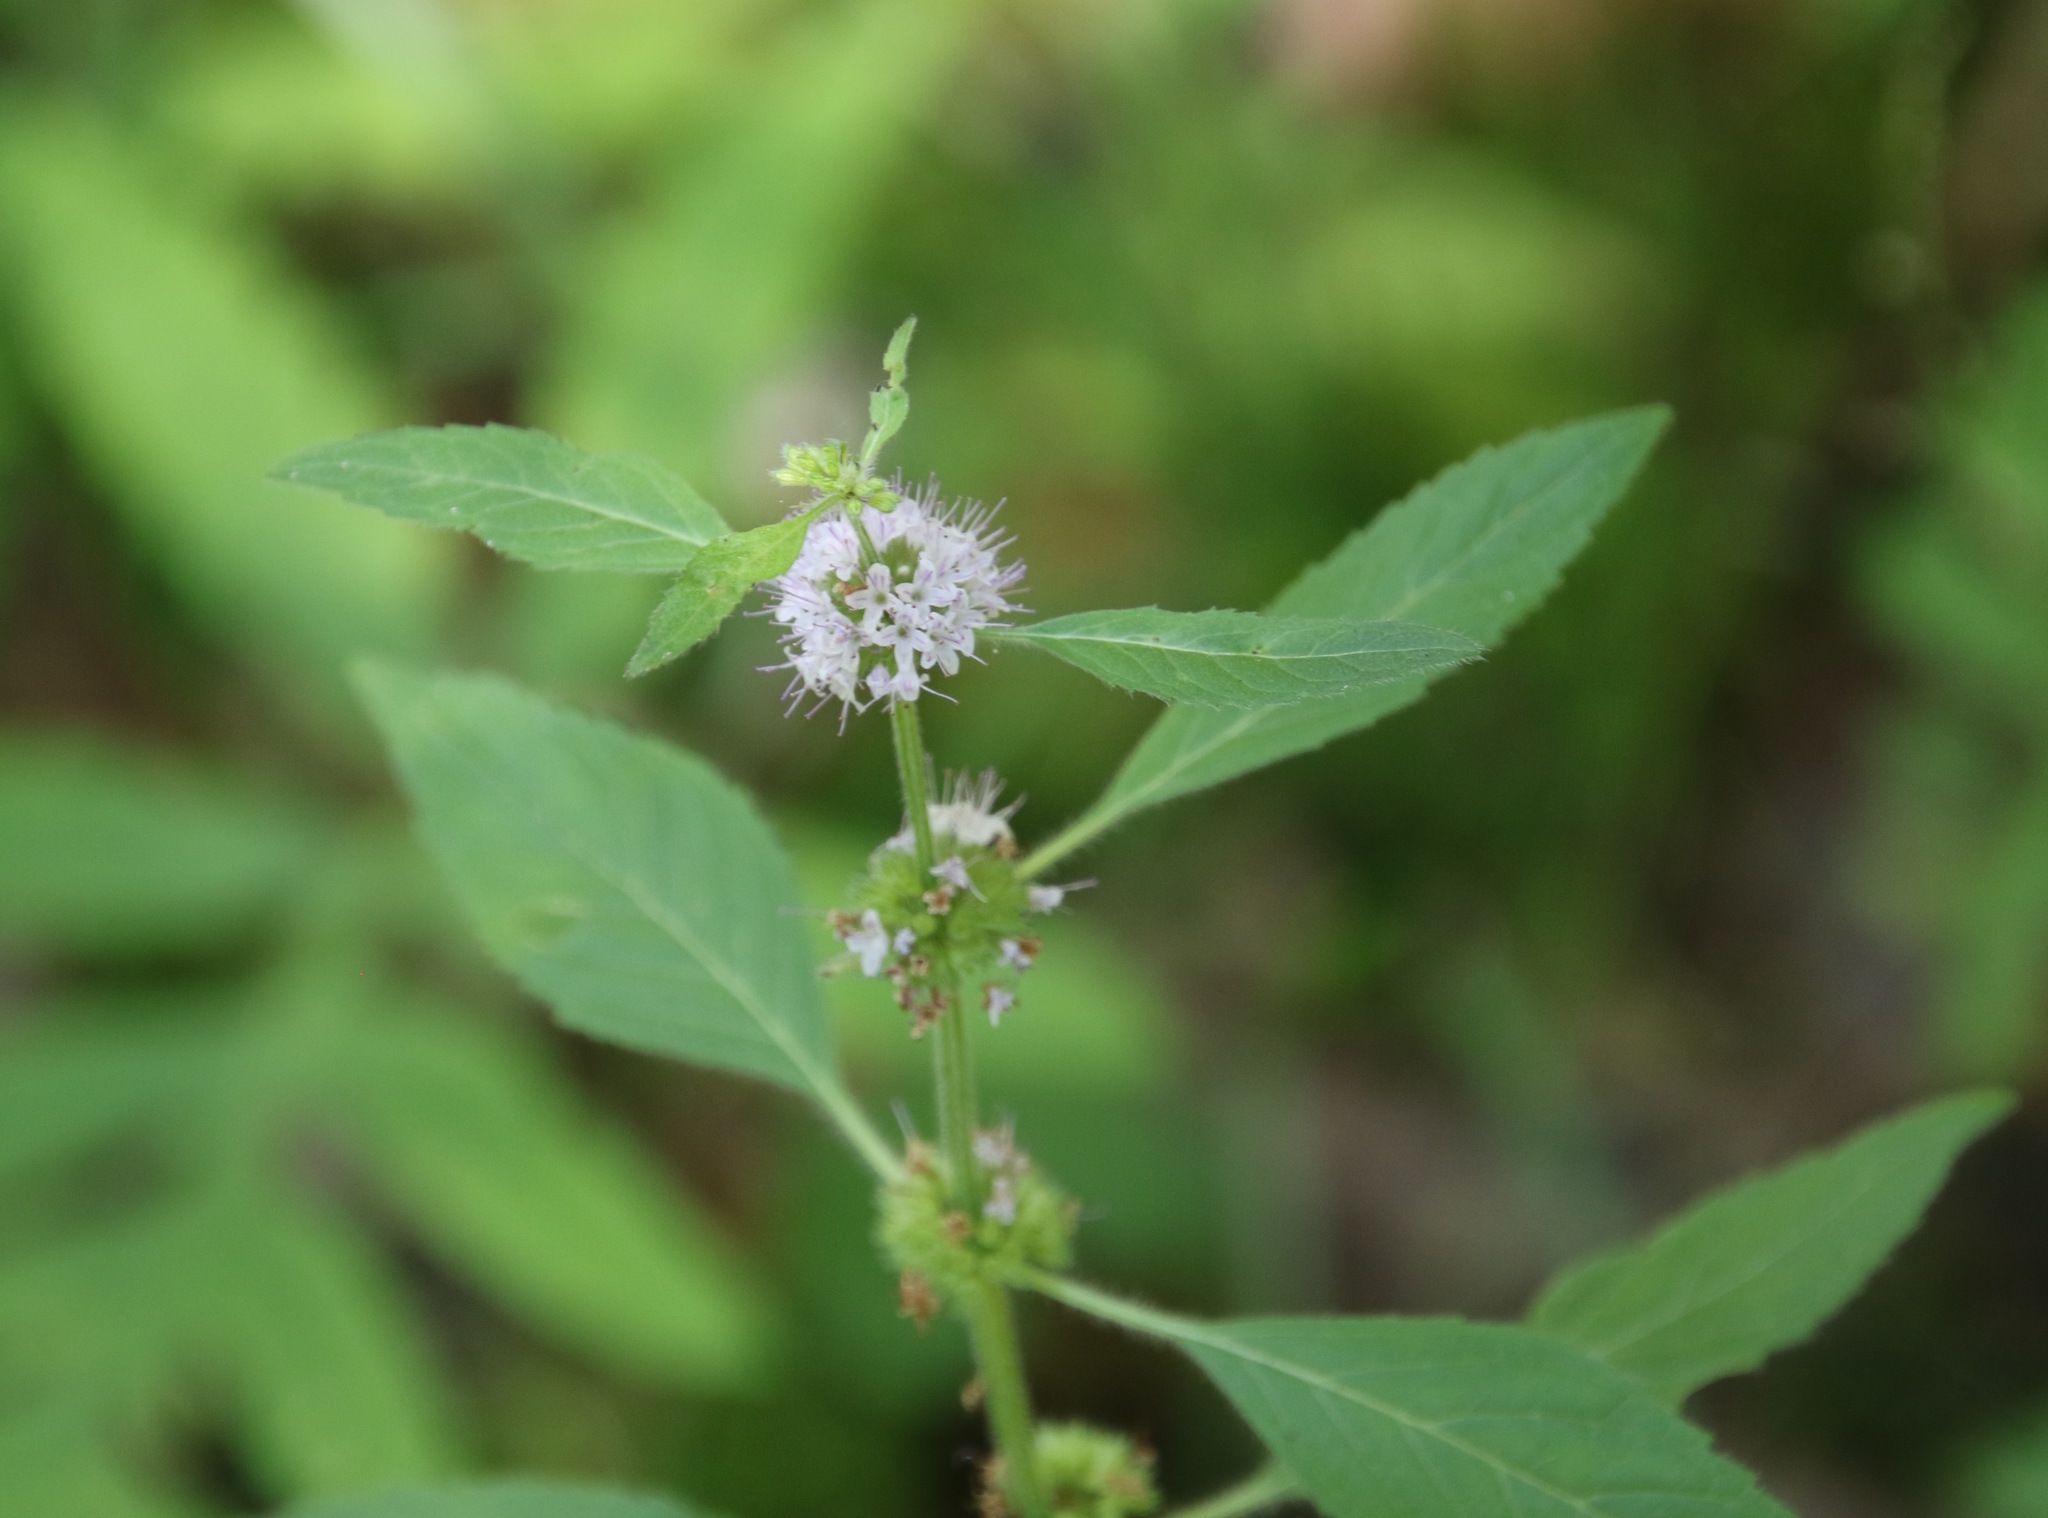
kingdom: Plantae
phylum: Tracheophyta
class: Magnoliopsida
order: Lamiales
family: Lamiaceae
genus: Mentha
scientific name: Mentha canadensis
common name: American corn mint
